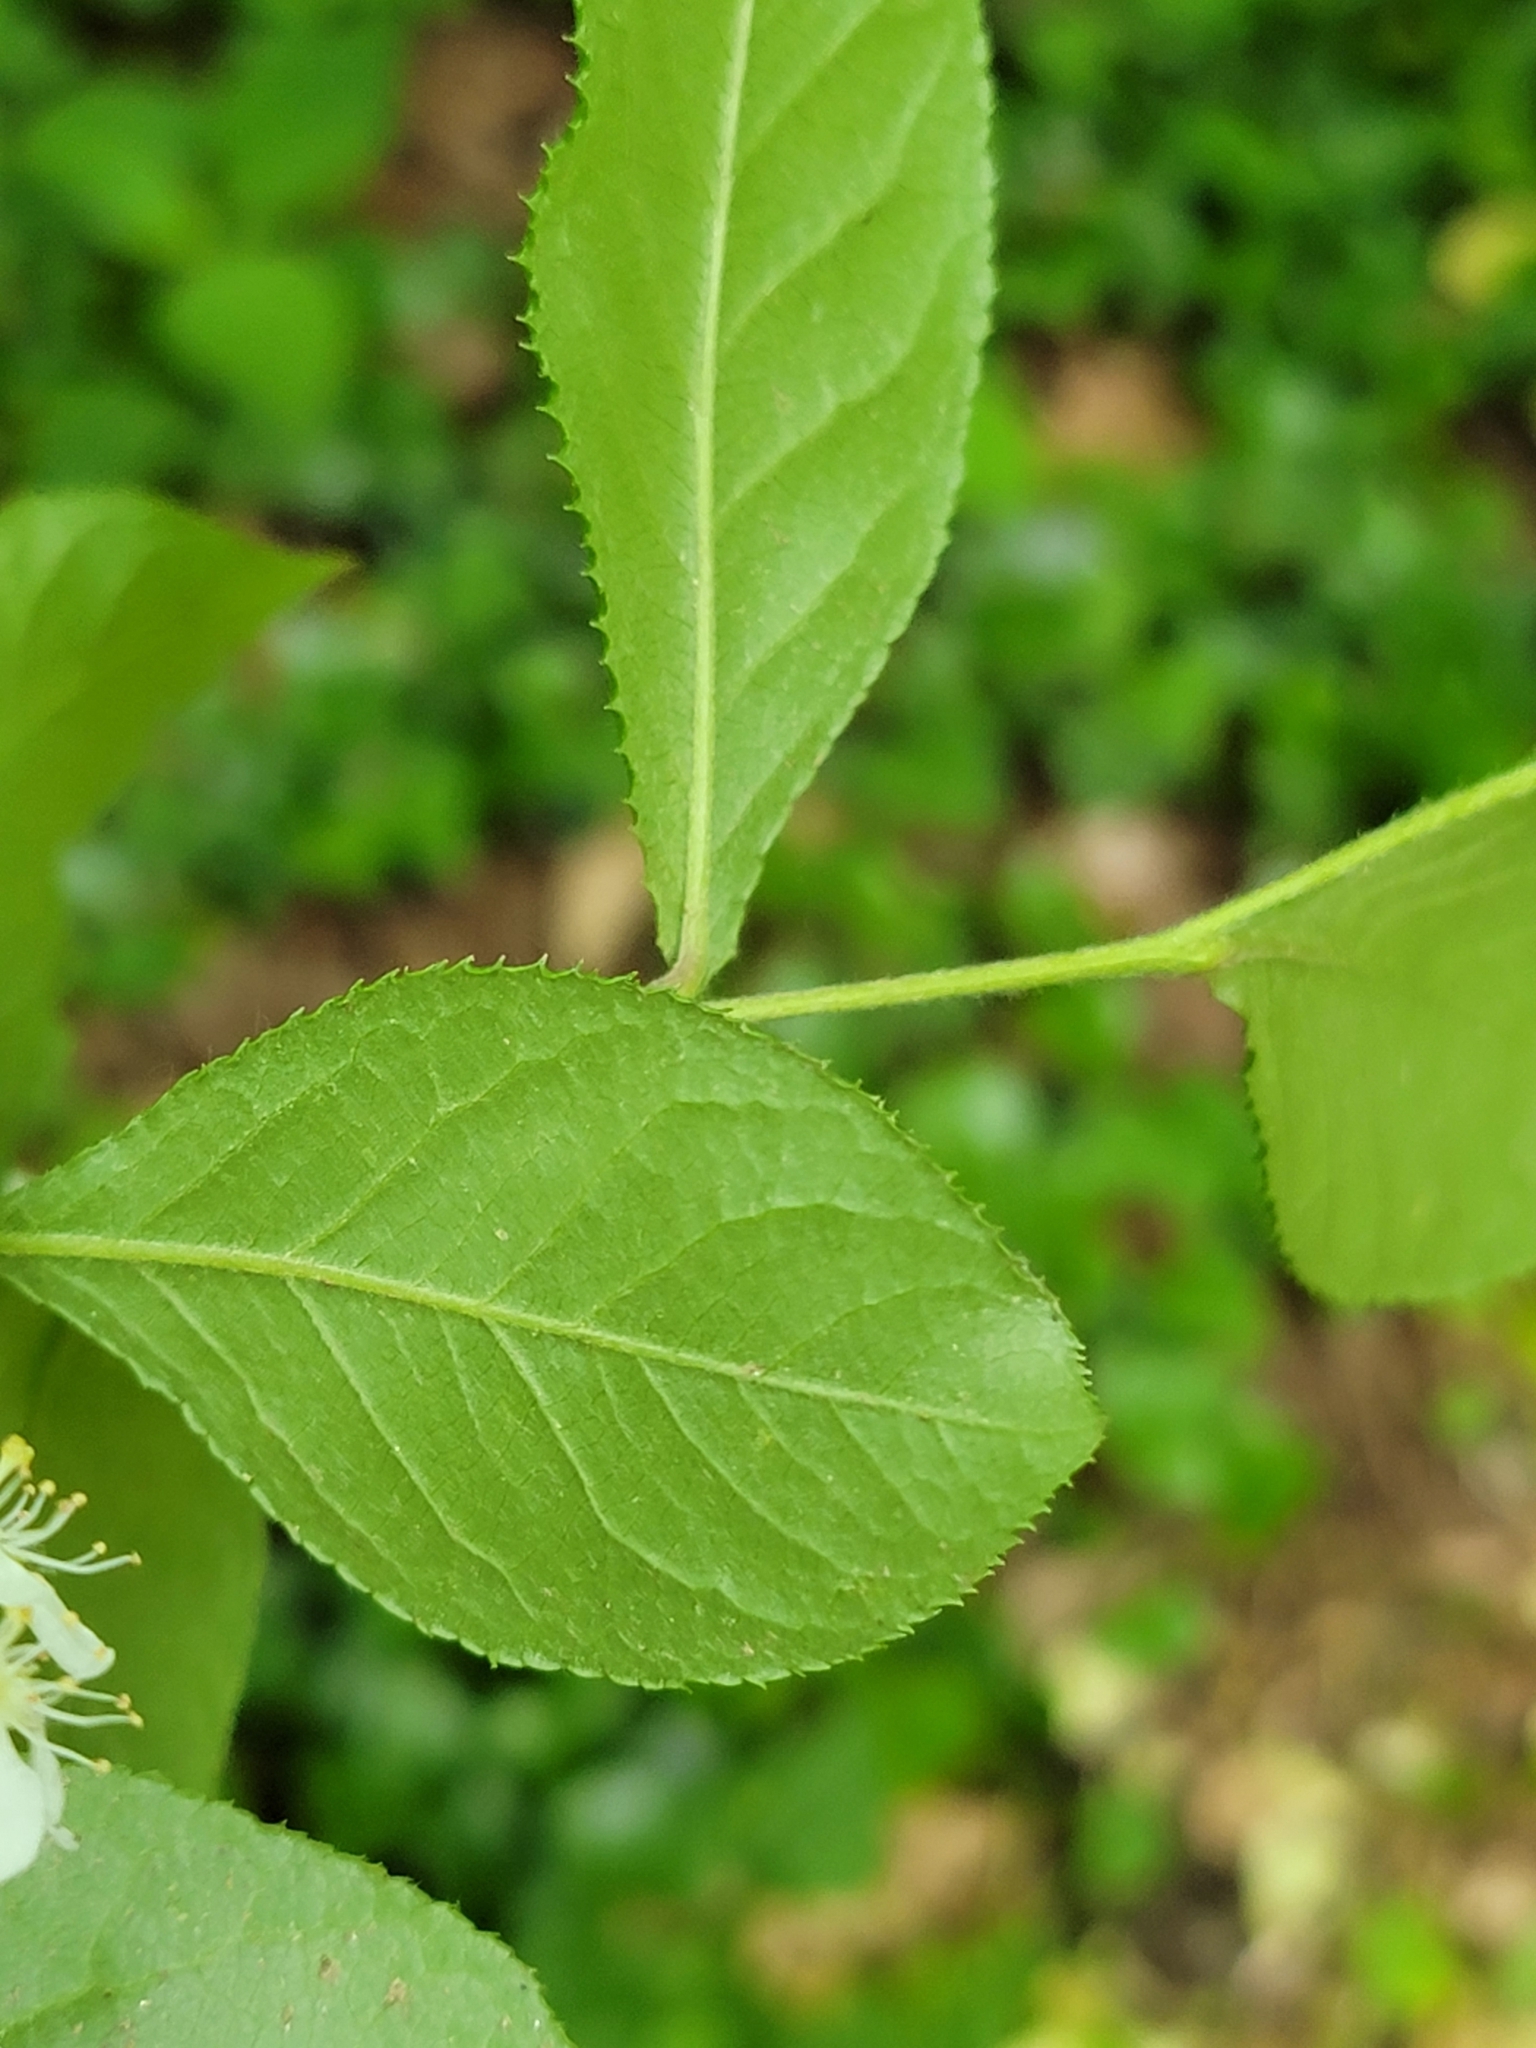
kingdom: Plantae
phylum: Tracheophyta
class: Magnoliopsida
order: Rosales
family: Rosaceae
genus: Pourthiaea
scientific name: Pourthiaea villosa
